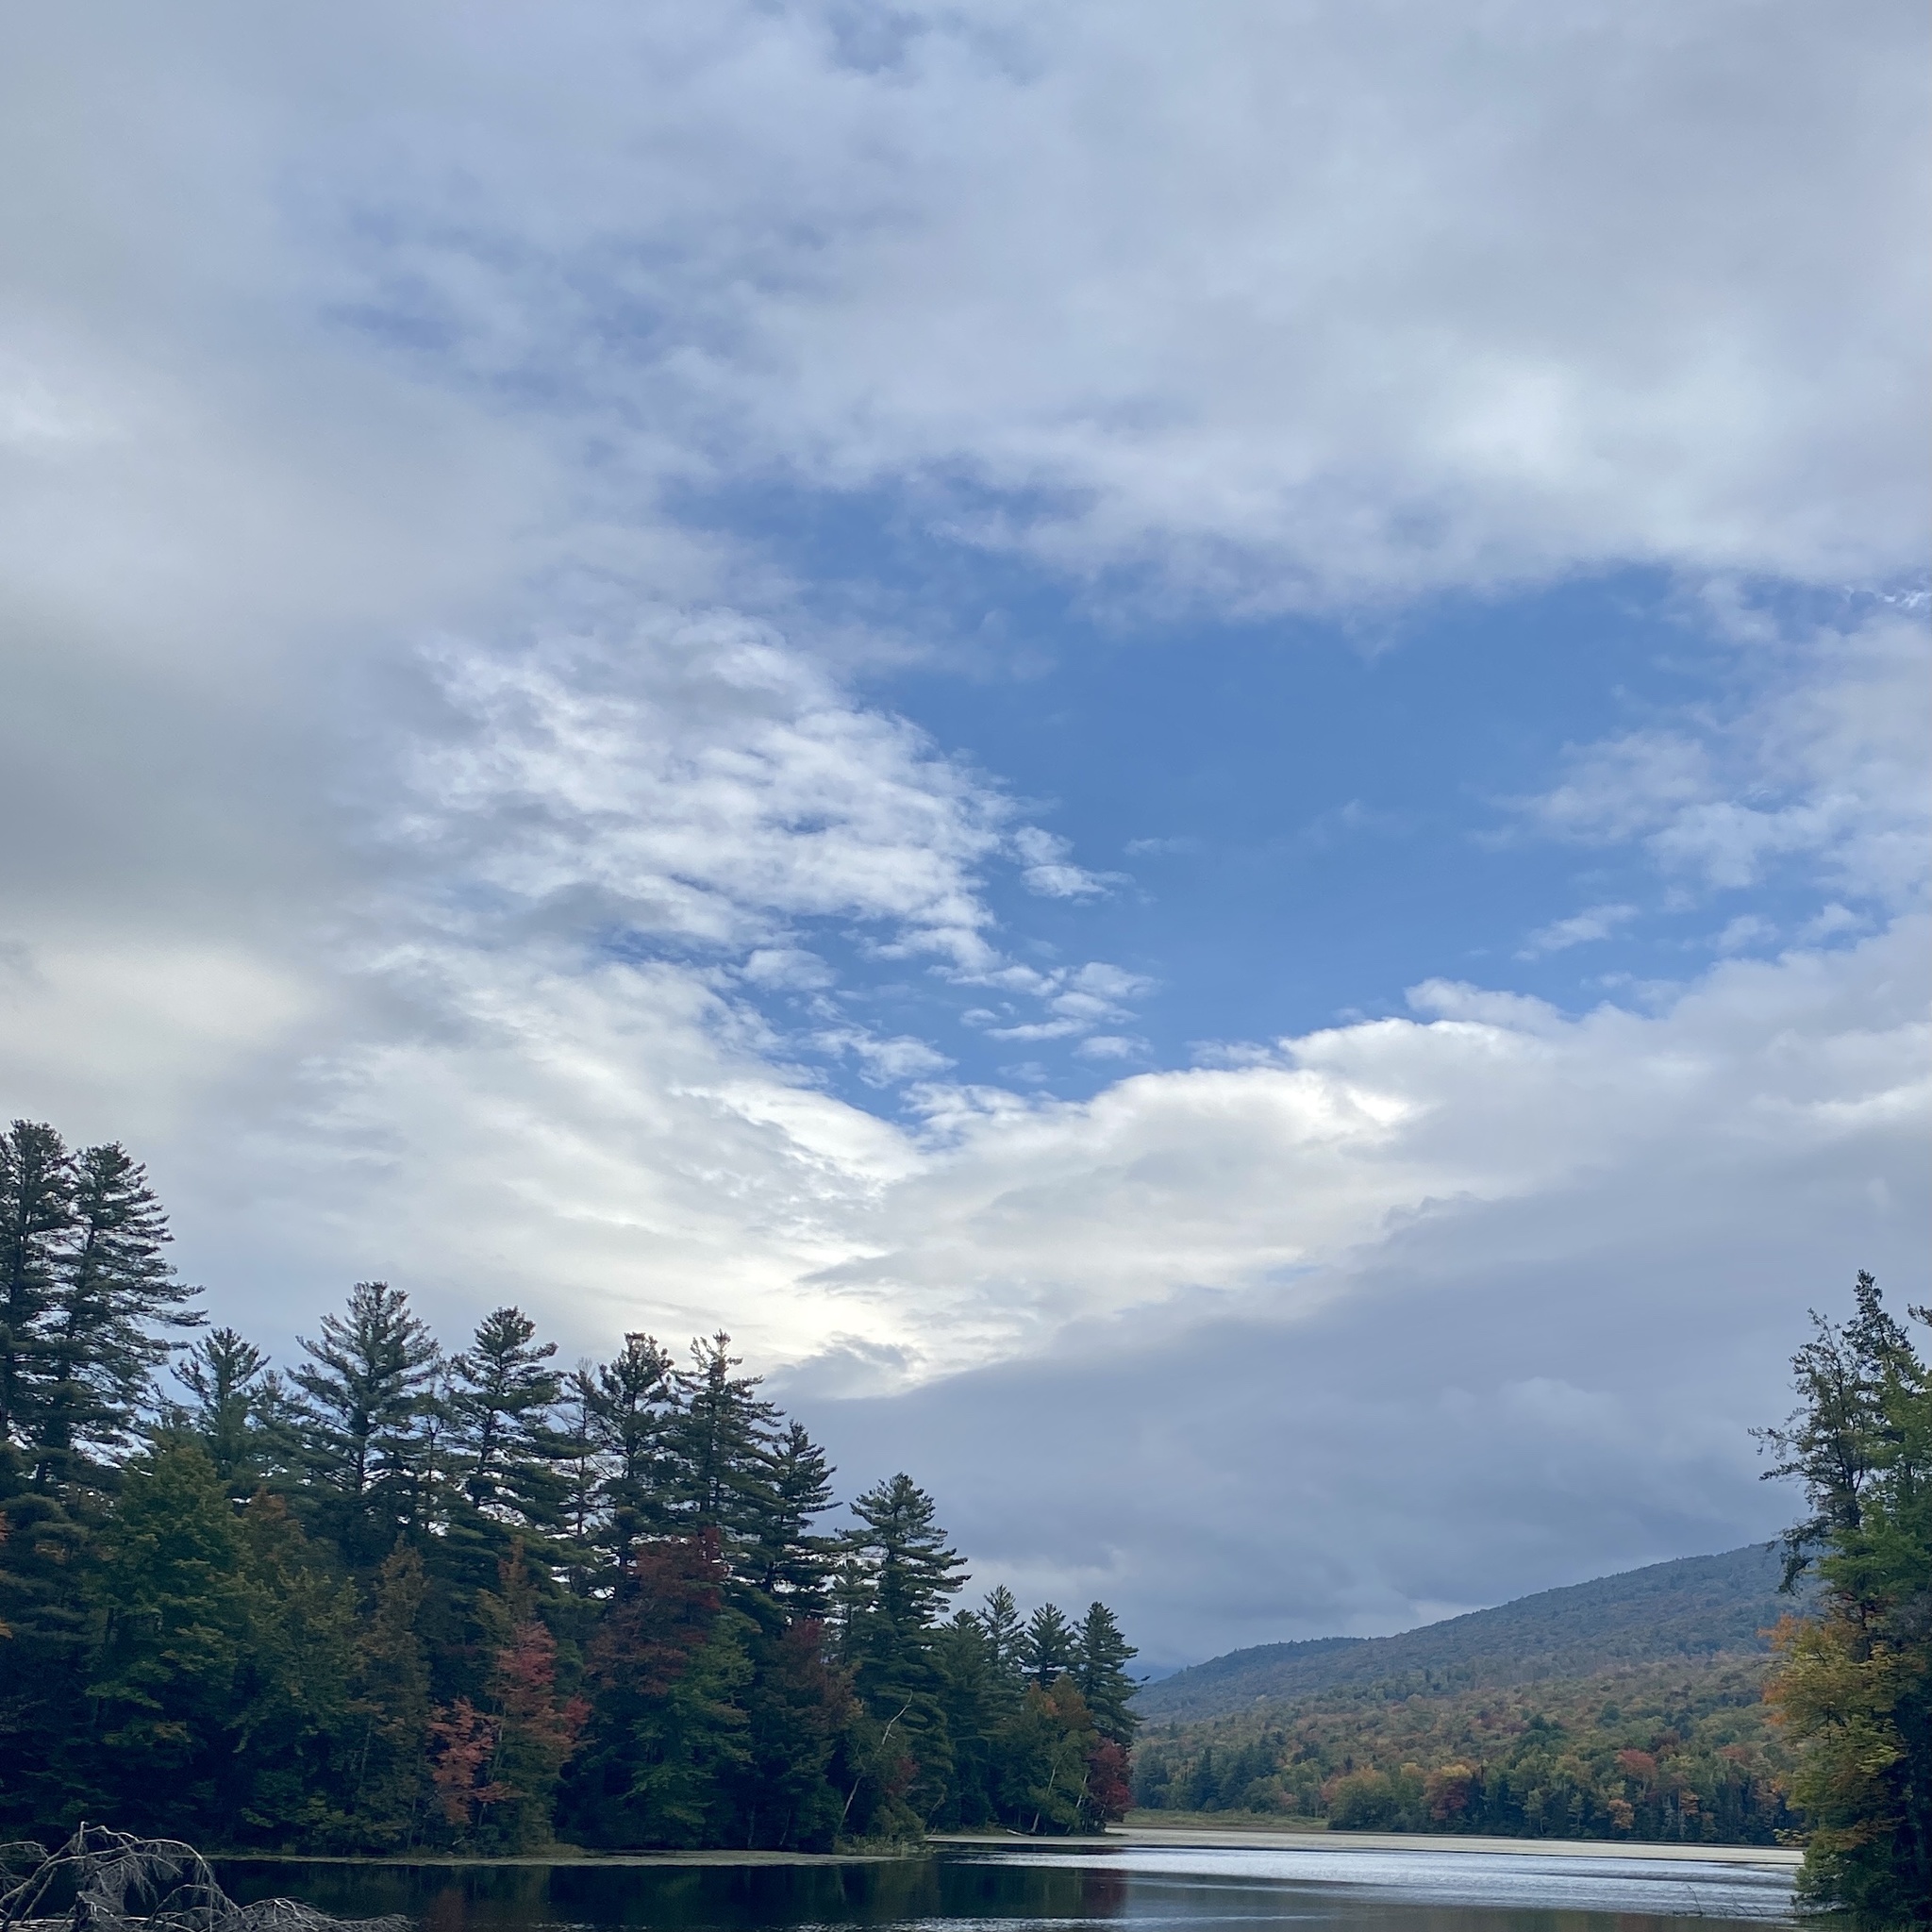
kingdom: Plantae
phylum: Tracheophyta
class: Pinopsida
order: Pinales
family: Pinaceae
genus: Pinus
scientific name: Pinus strobus
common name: Weymouth pine
